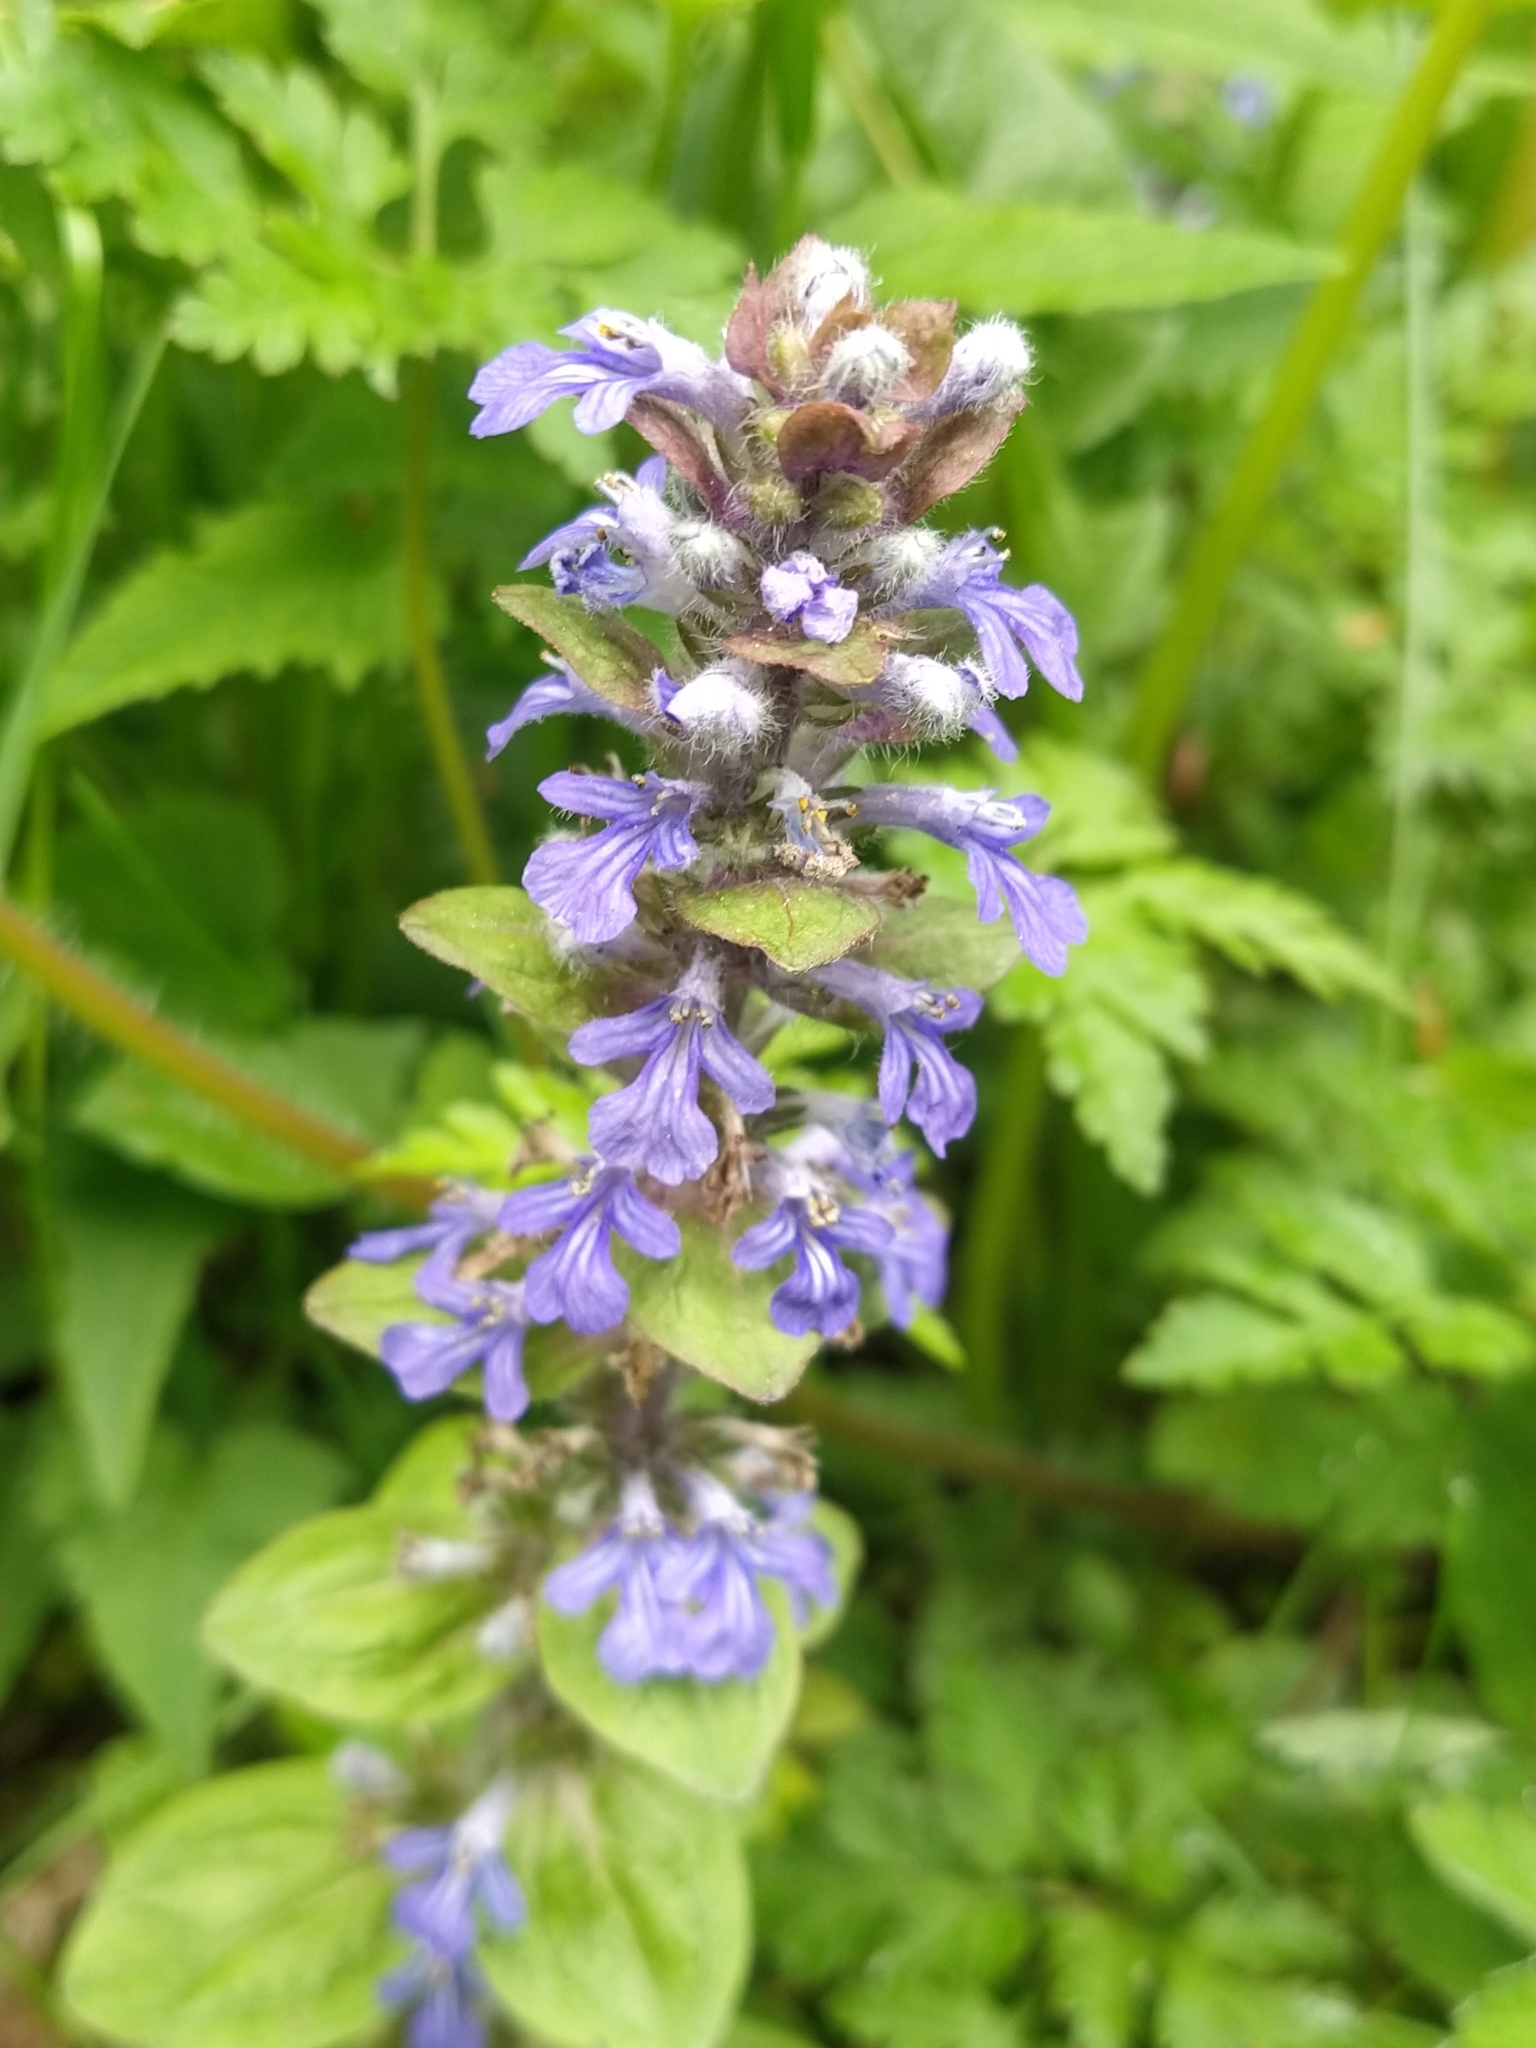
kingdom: Plantae
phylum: Tracheophyta
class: Magnoliopsida
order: Lamiales
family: Lamiaceae
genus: Ajuga
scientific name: Ajuga reptans
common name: Bugle
